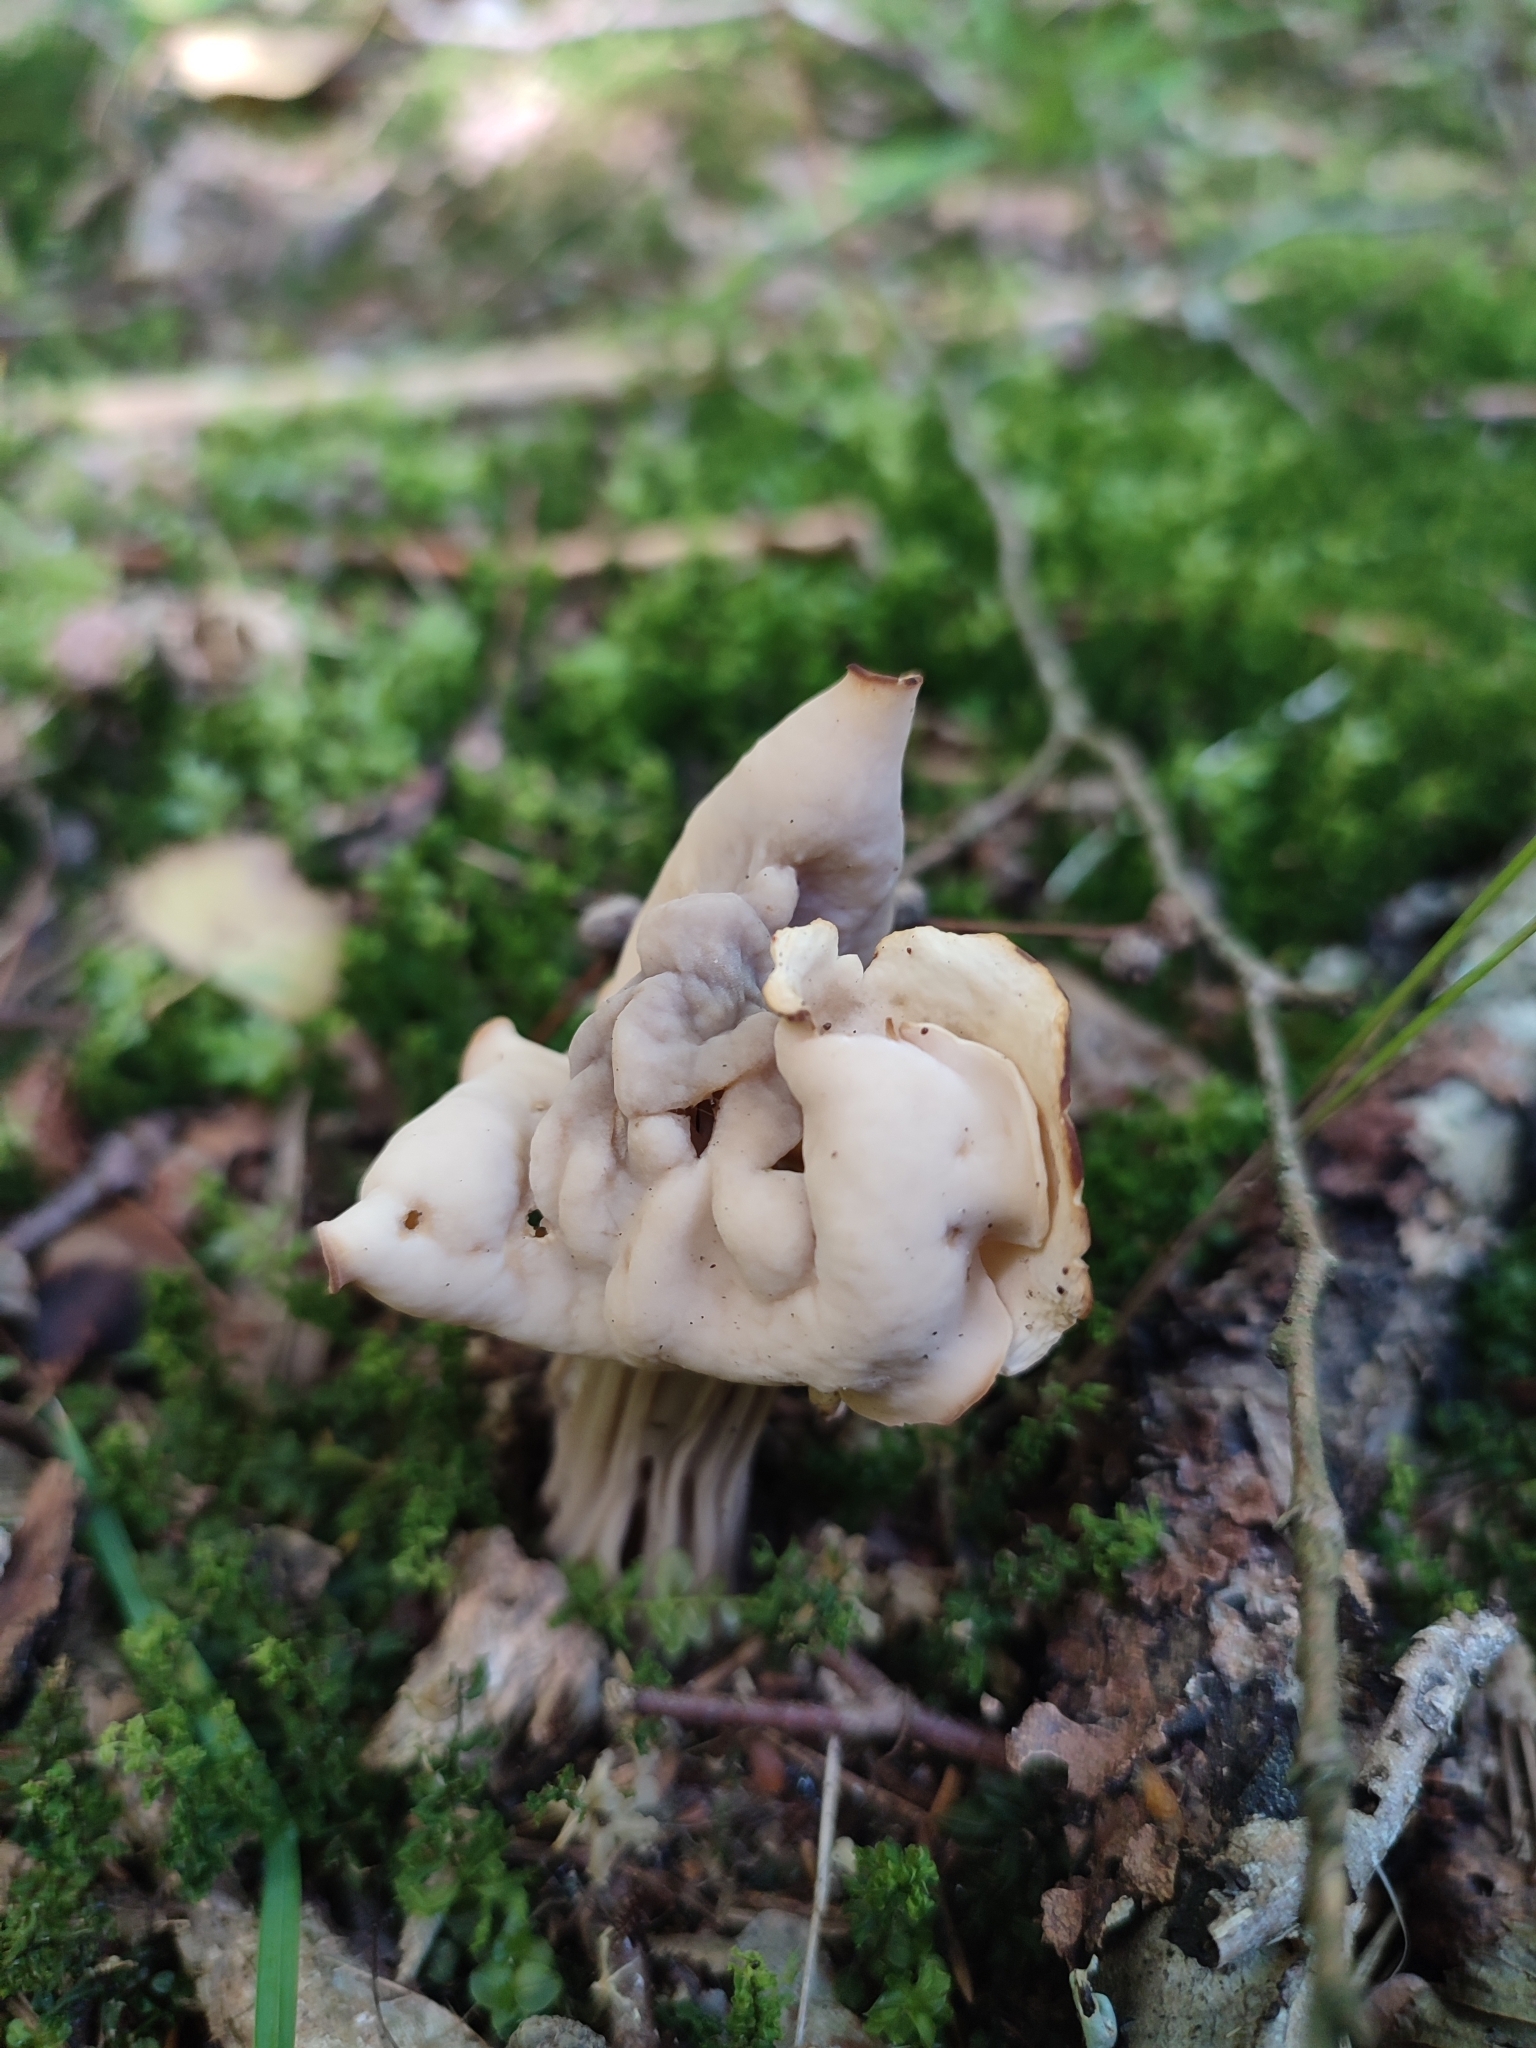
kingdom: Fungi
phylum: Ascomycota
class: Pezizomycetes
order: Pezizales
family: Helvellaceae
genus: Helvella
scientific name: Helvella crispa
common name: White saddle
